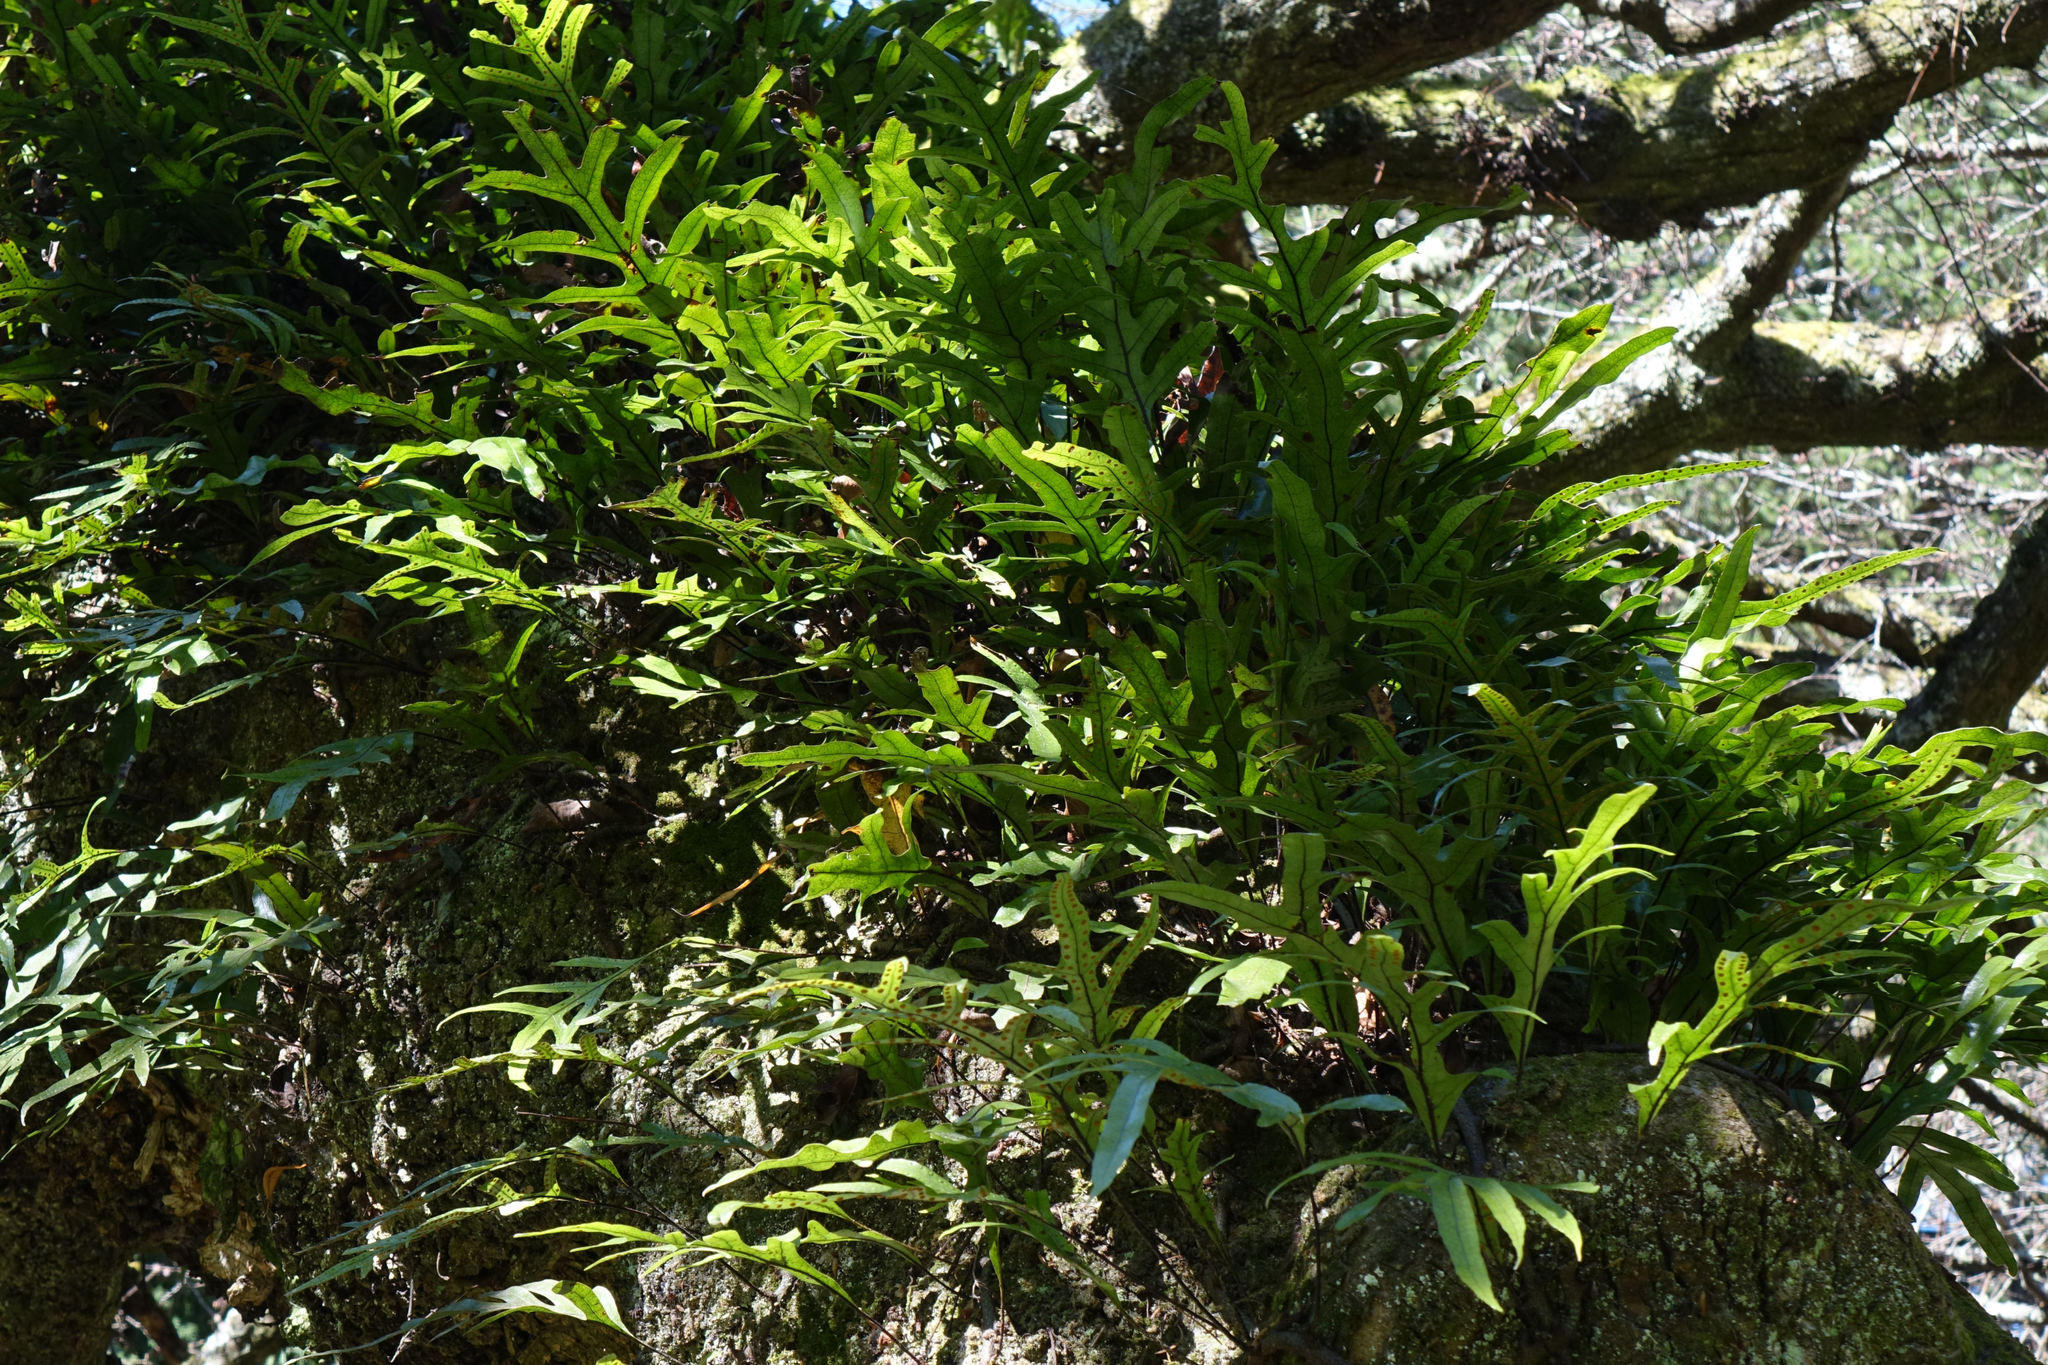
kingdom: Plantae
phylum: Tracheophyta
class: Polypodiopsida
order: Polypodiales
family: Polypodiaceae
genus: Lecanopteris
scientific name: Lecanopteris pustulata
